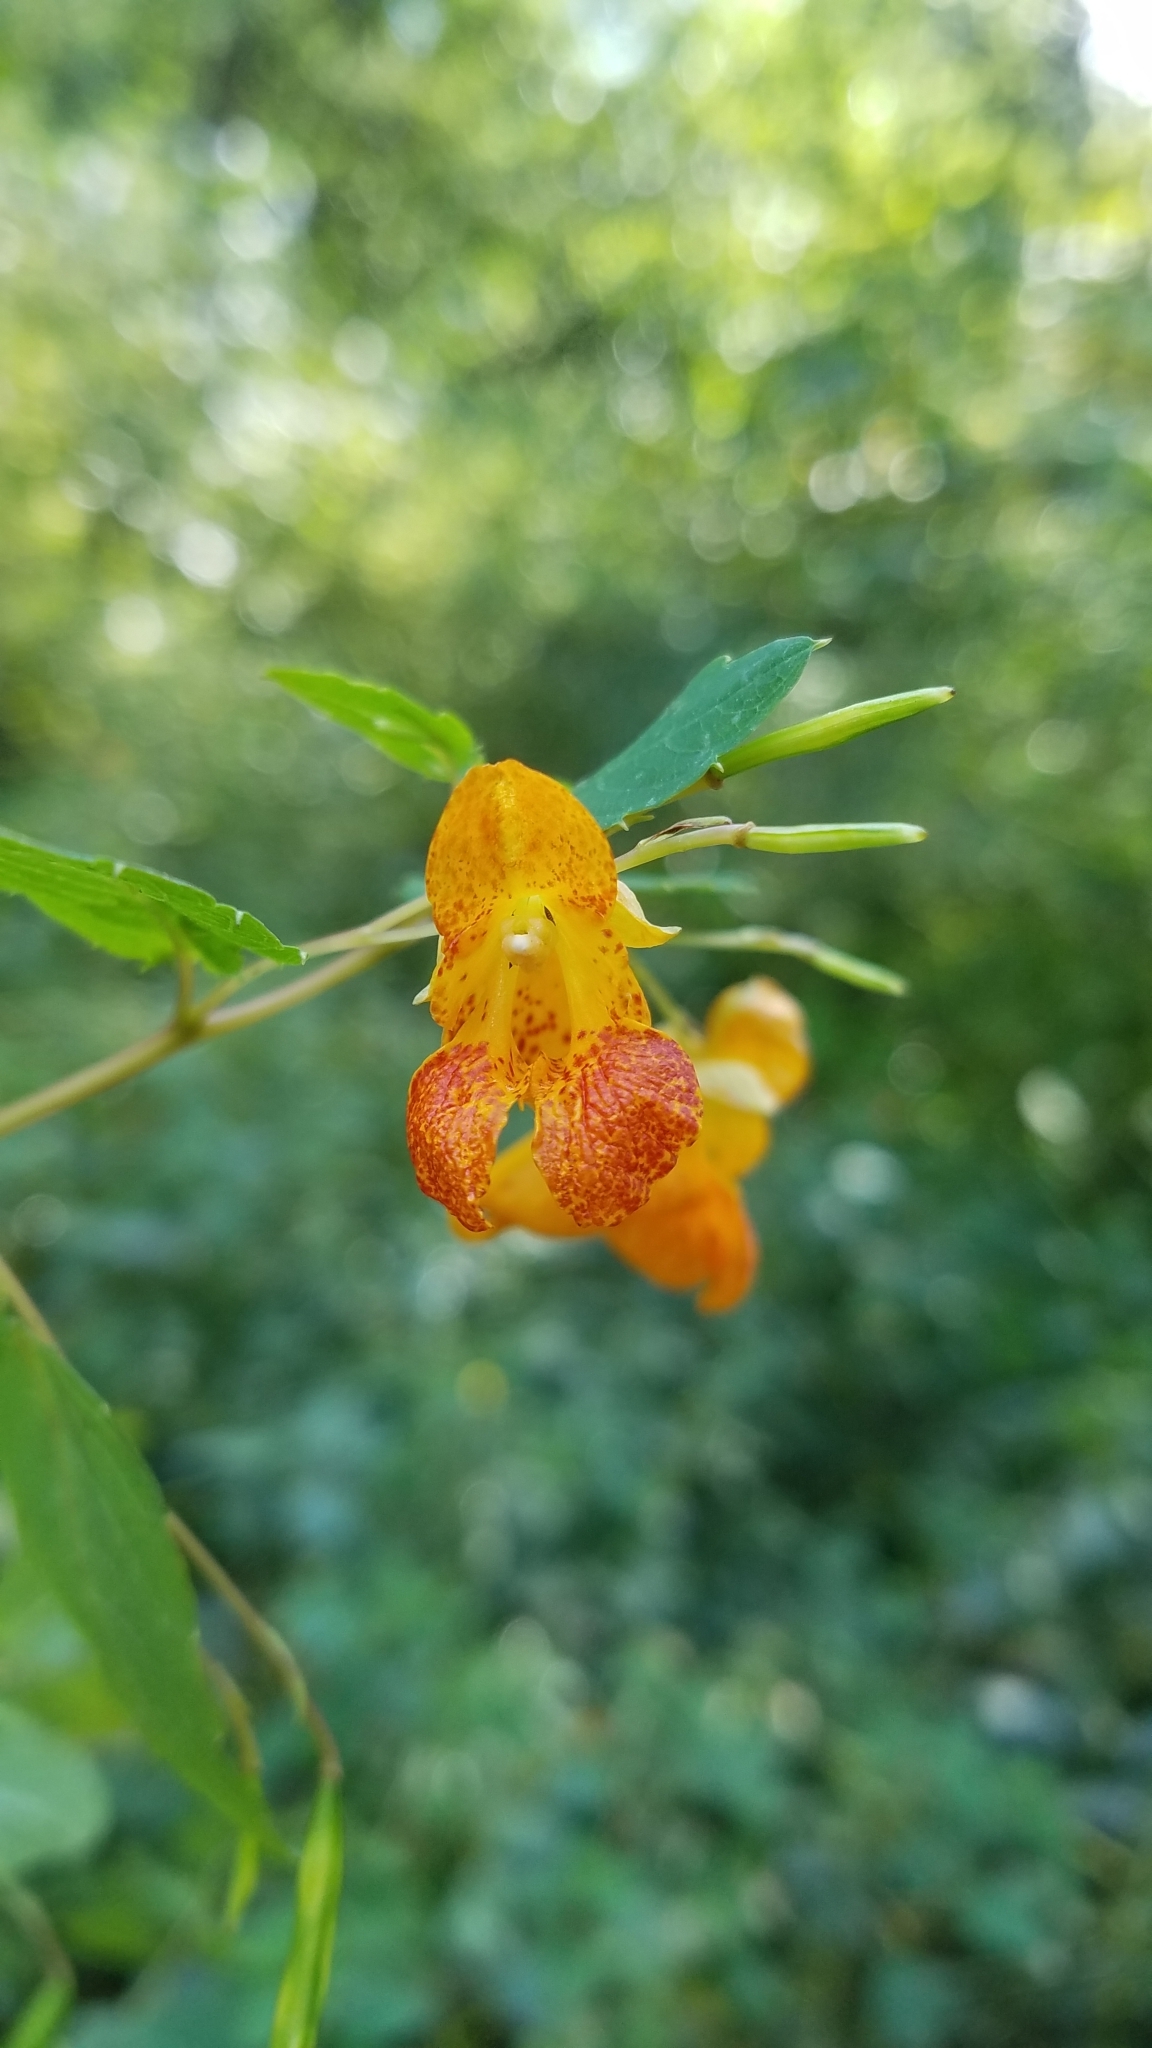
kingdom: Plantae
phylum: Tracheophyta
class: Magnoliopsida
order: Ericales
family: Balsaminaceae
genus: Impatiens
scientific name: Impatiens capensis
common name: Orange balsam
